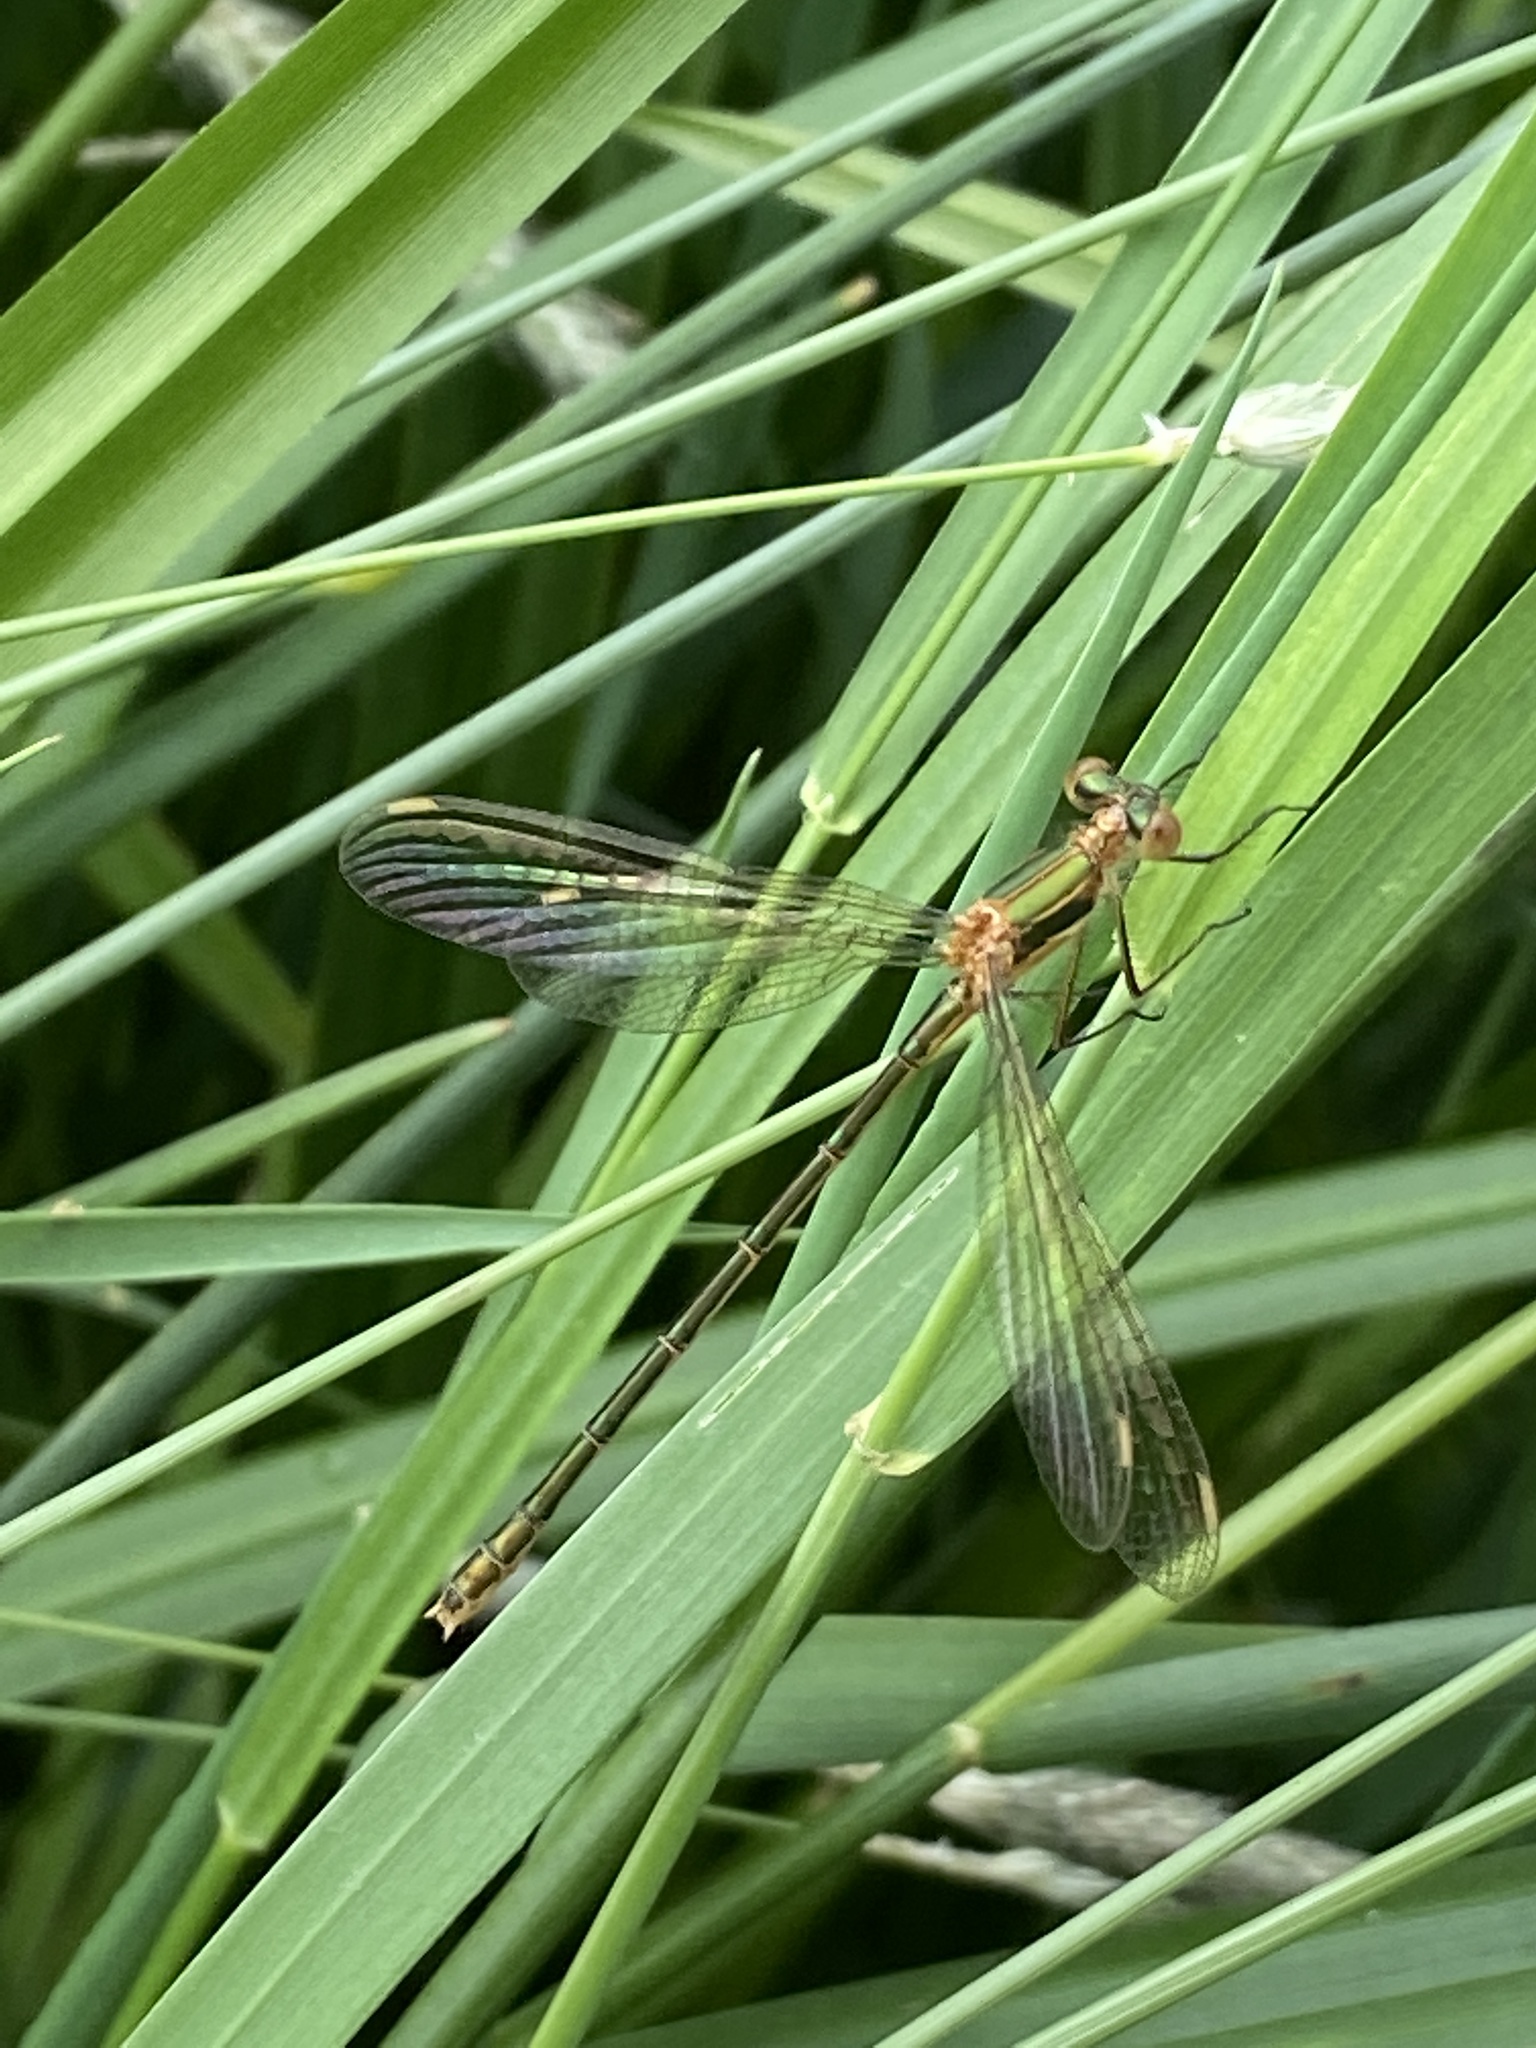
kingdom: Animalia
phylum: Arthropoda
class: Insecta
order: Odonata
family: Lestidae
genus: Lestes
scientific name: Lestes virens
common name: Small emerald spreadwing
